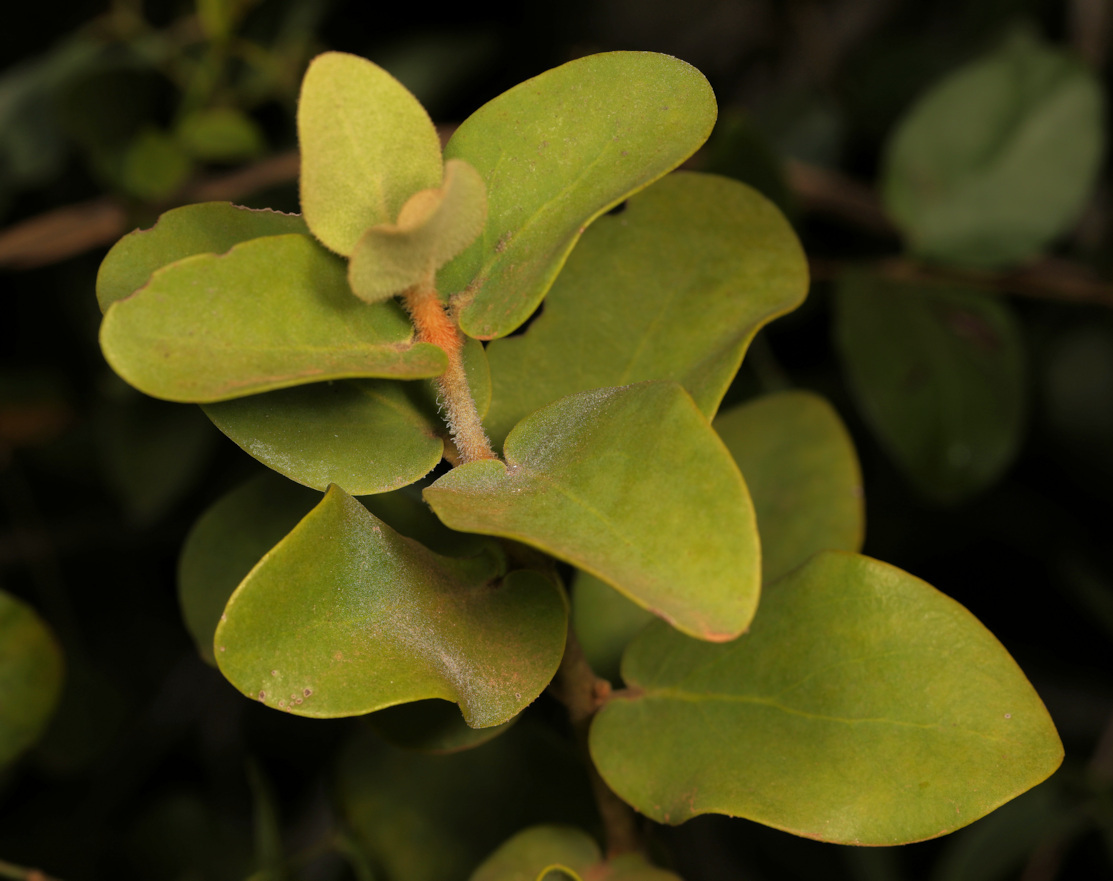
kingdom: Plantae
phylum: Tracheophyta
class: Magnoliopsida
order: Santalales
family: Loranthaceae
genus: Erianthemum
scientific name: Erianthemum dregei
